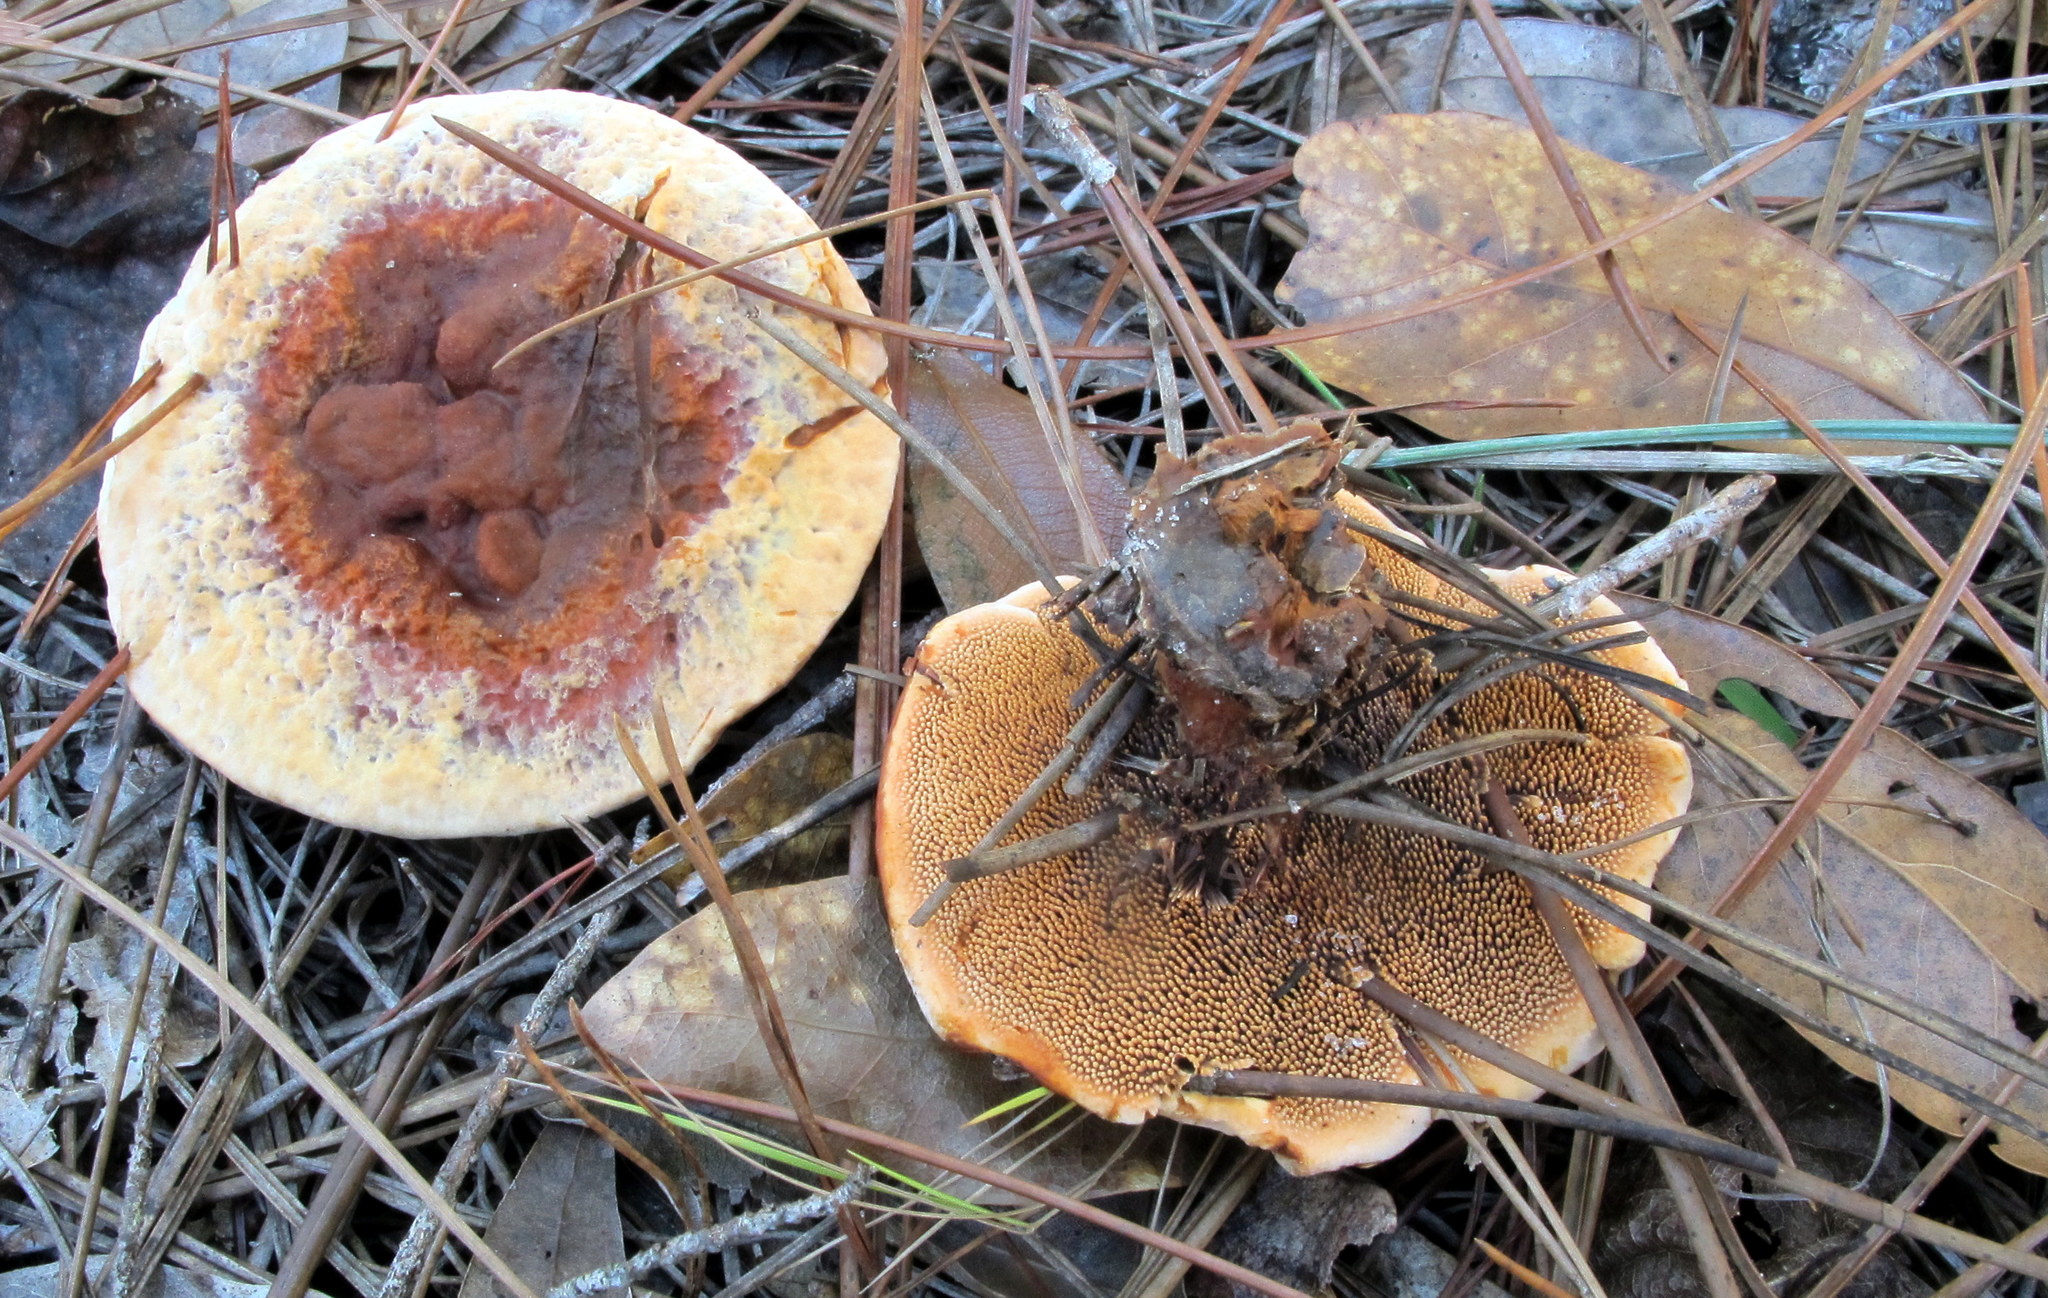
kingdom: Fungi
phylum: Basidiomycota
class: Agaricomycetes
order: Thelephorales
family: Bankeraceae
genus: Hydnellum
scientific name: Hydnellum aurantiacum
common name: Orange tooth
